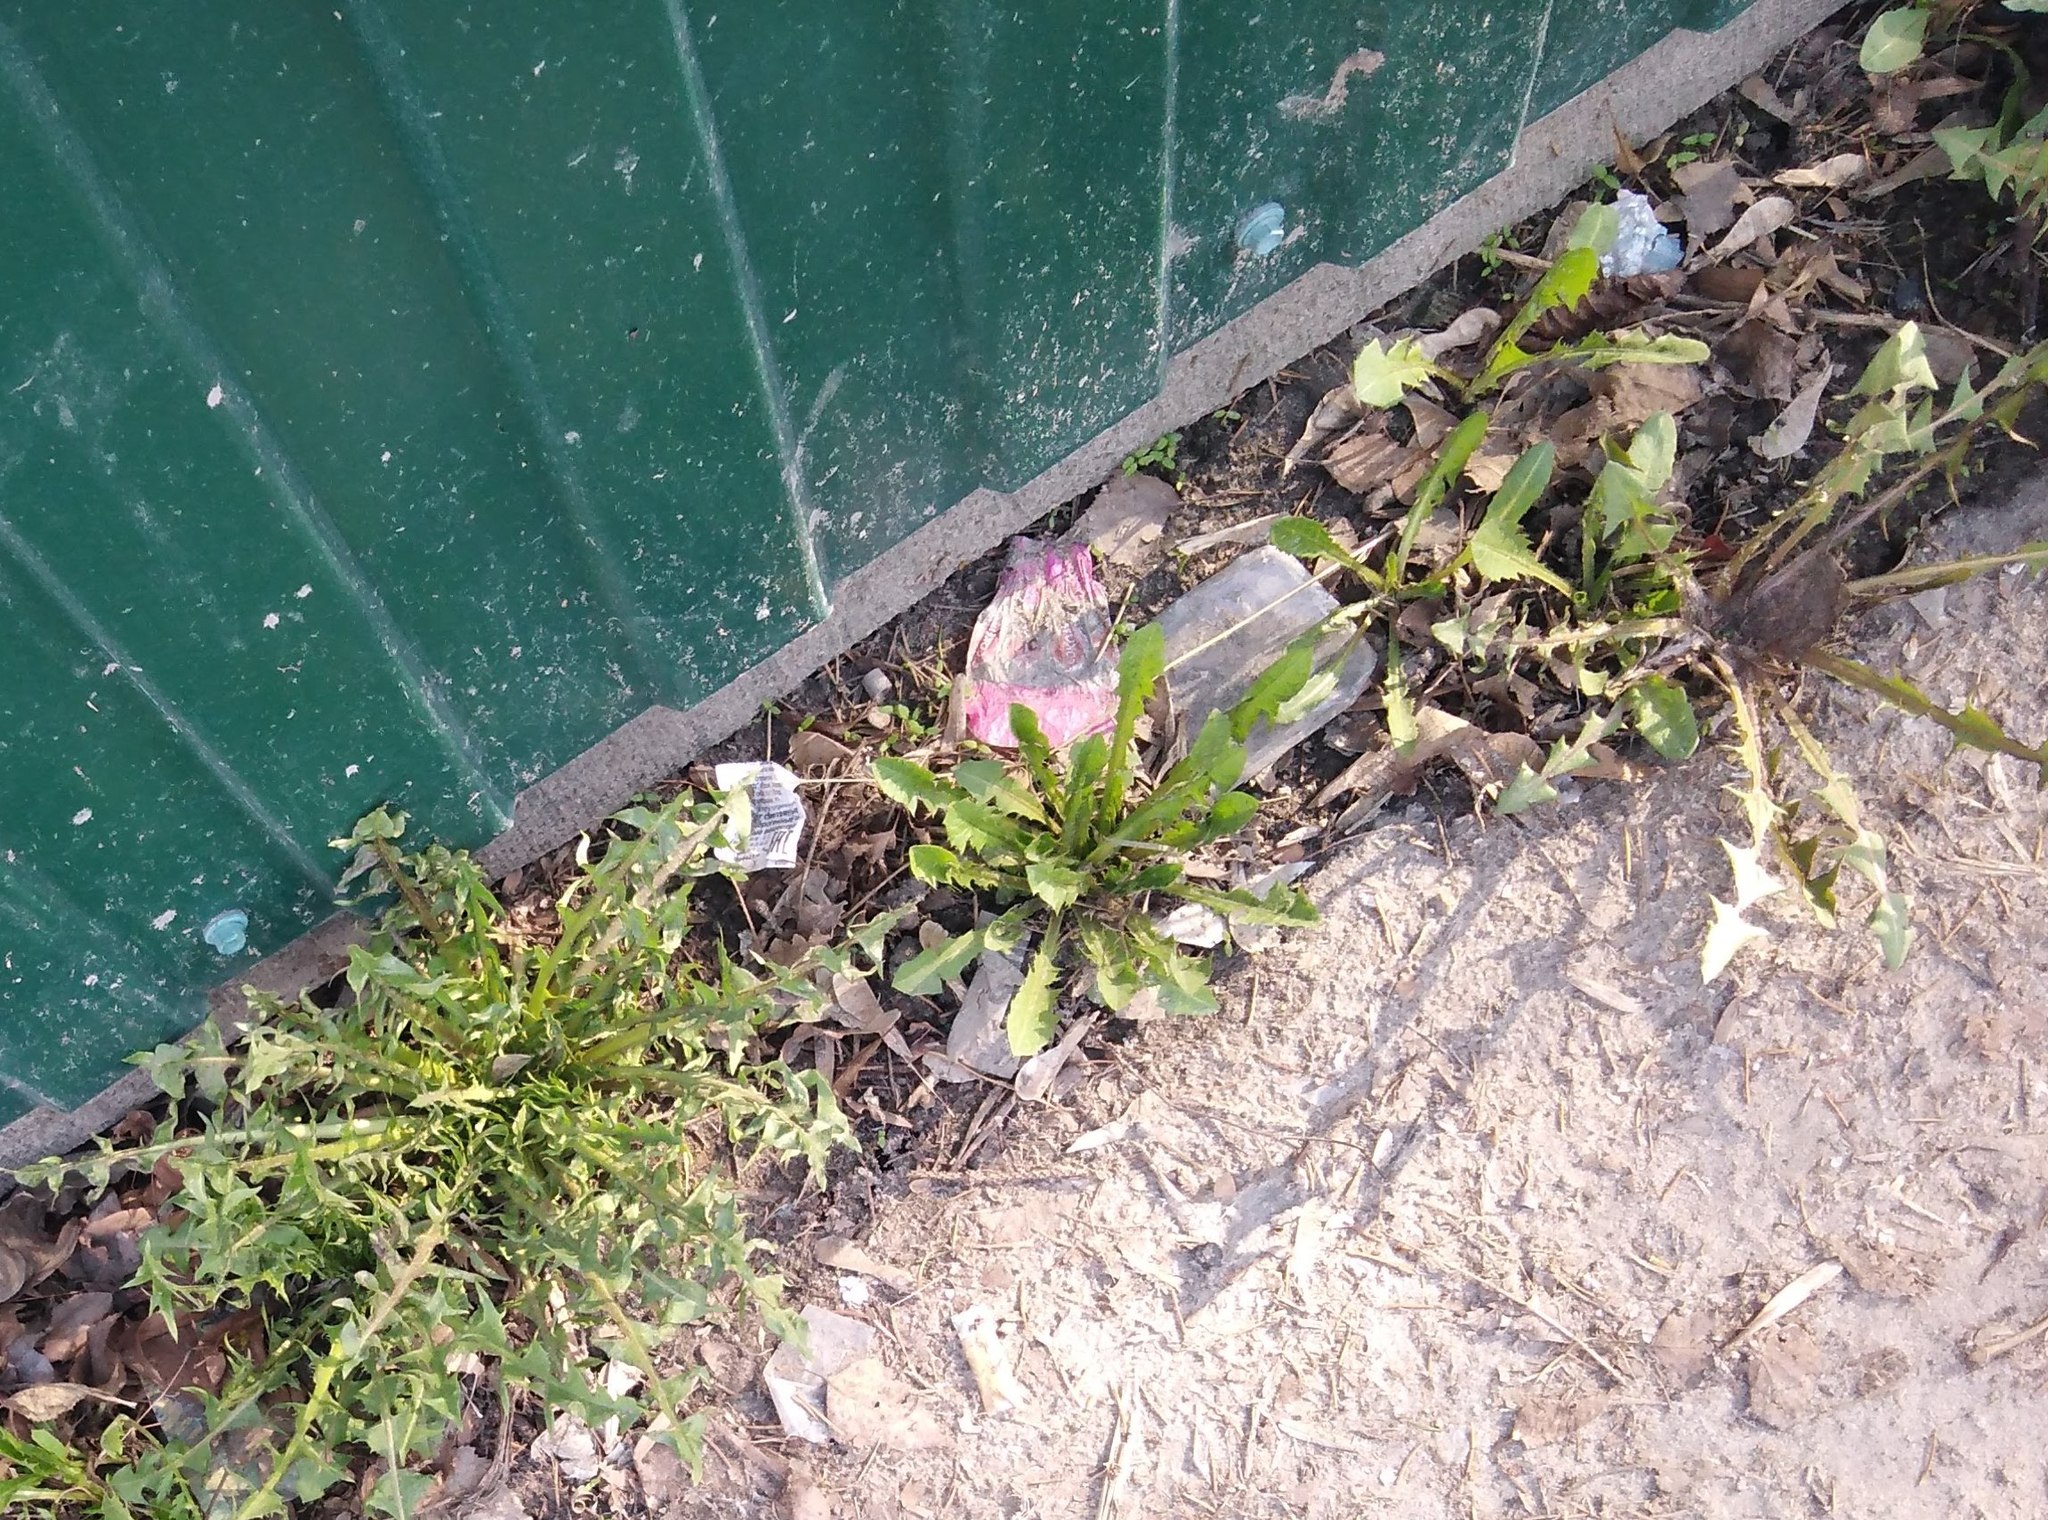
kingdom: Plantae
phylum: Tracheophyta
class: Magnoliopsida
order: Asterales
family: Asteraceae
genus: Taraxacum
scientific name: Taraxacum officinale
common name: Common dandelion
